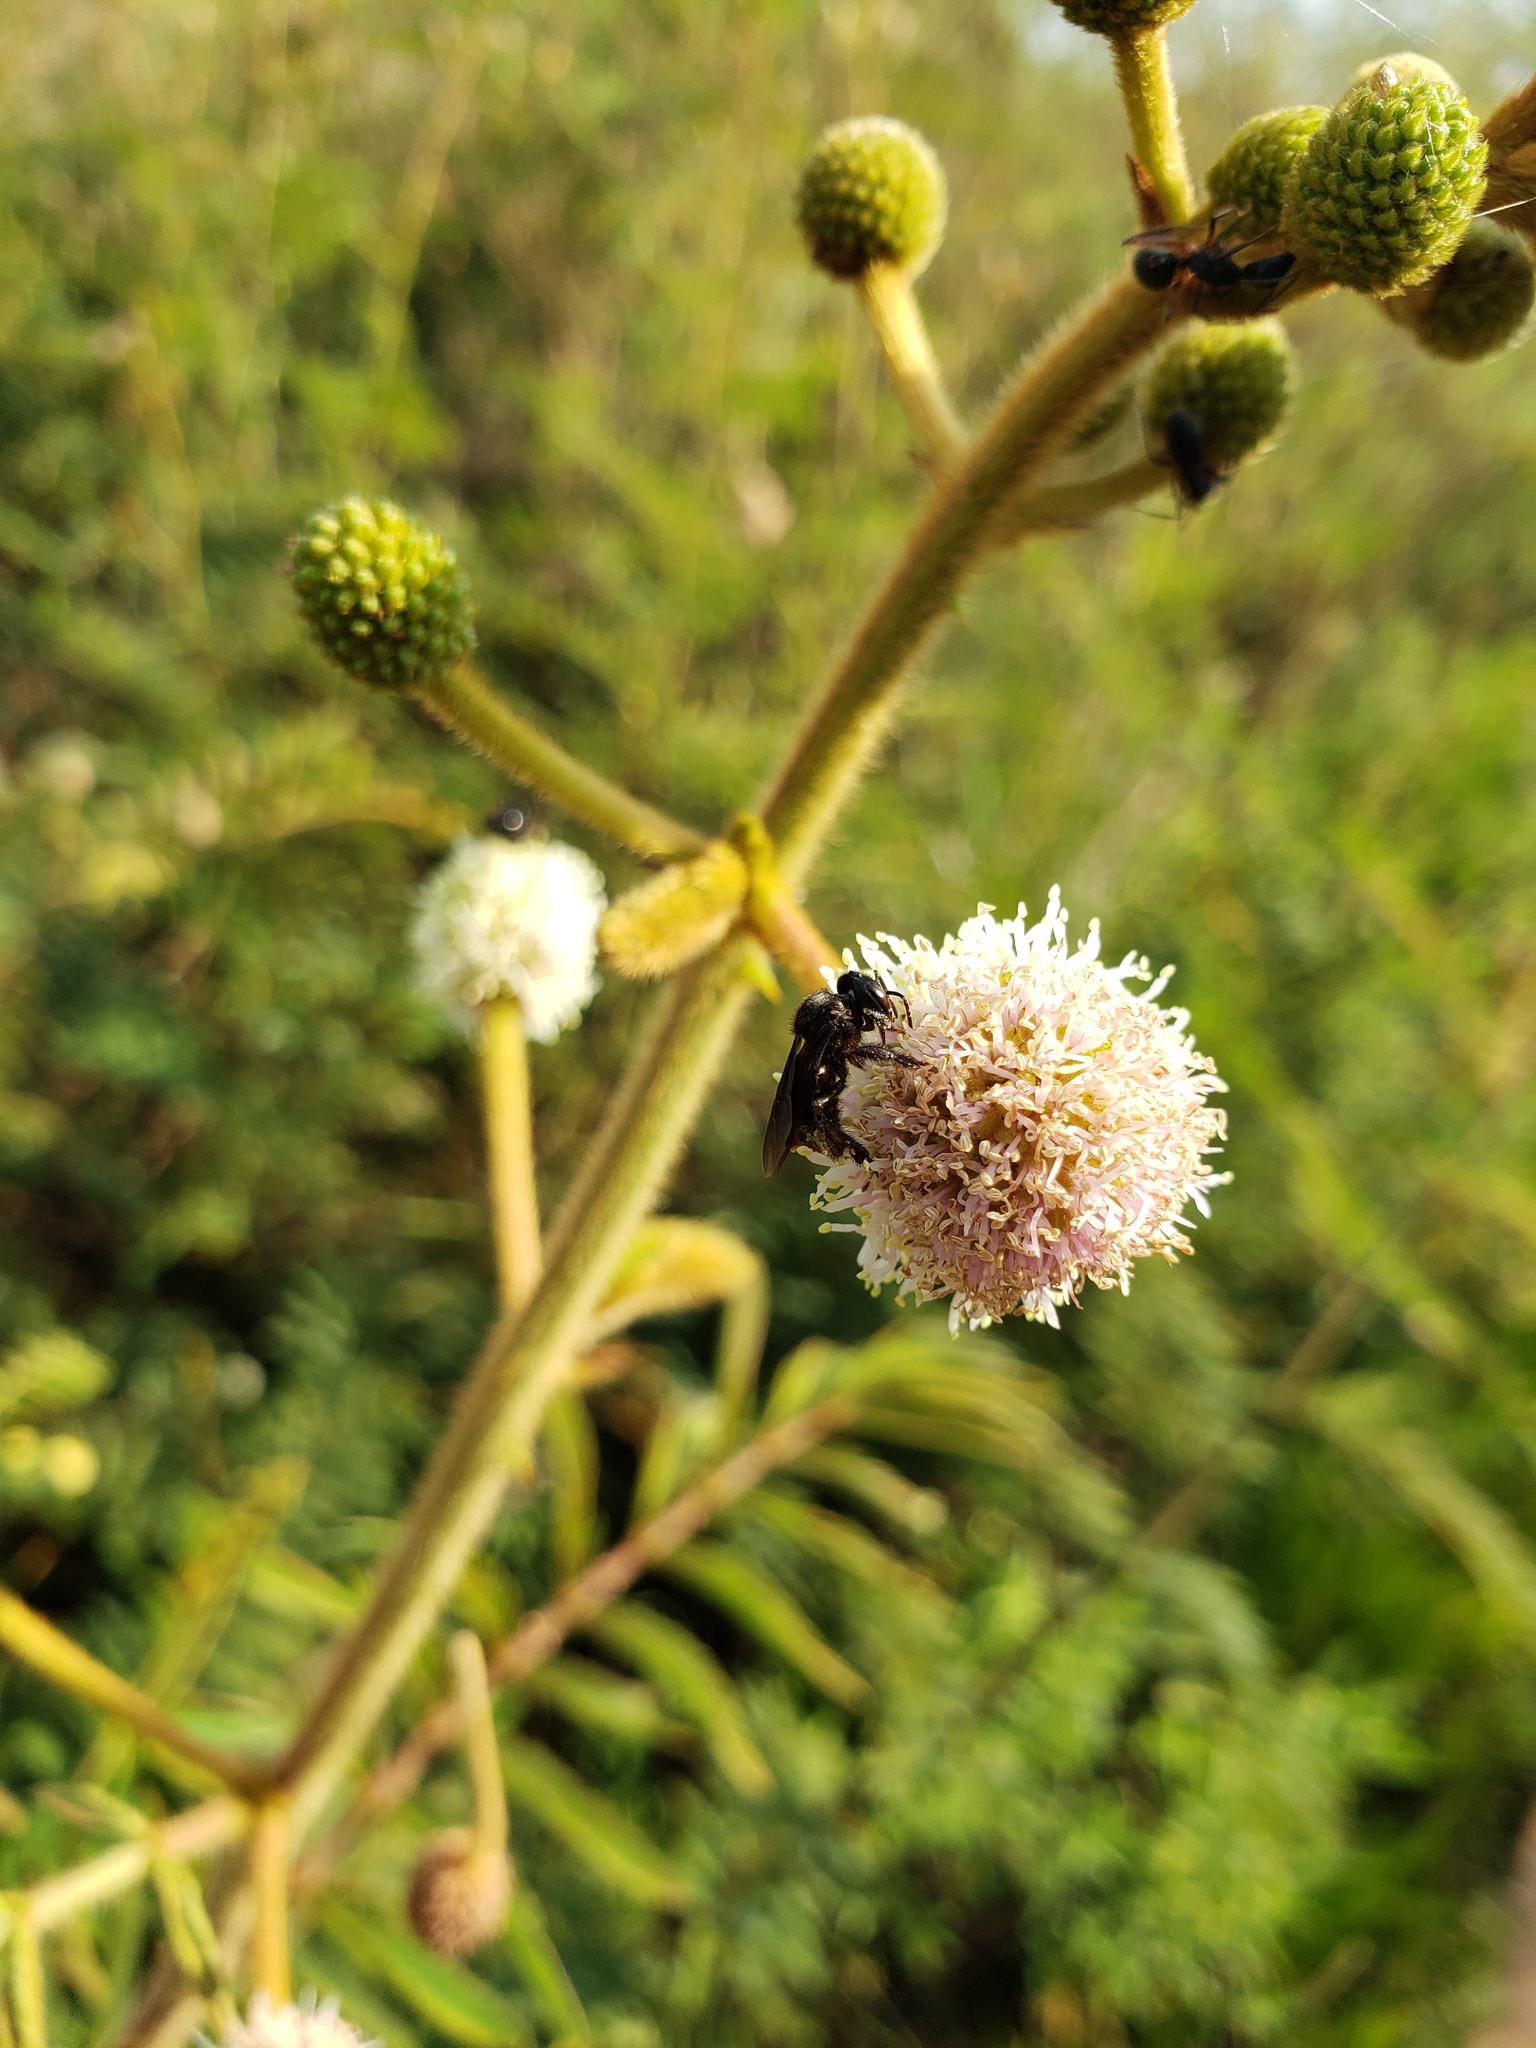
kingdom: Animalia
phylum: Arthropoda
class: Insecta
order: Hymenoptera
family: Apidae
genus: Trigona
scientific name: Trigona spinipes
